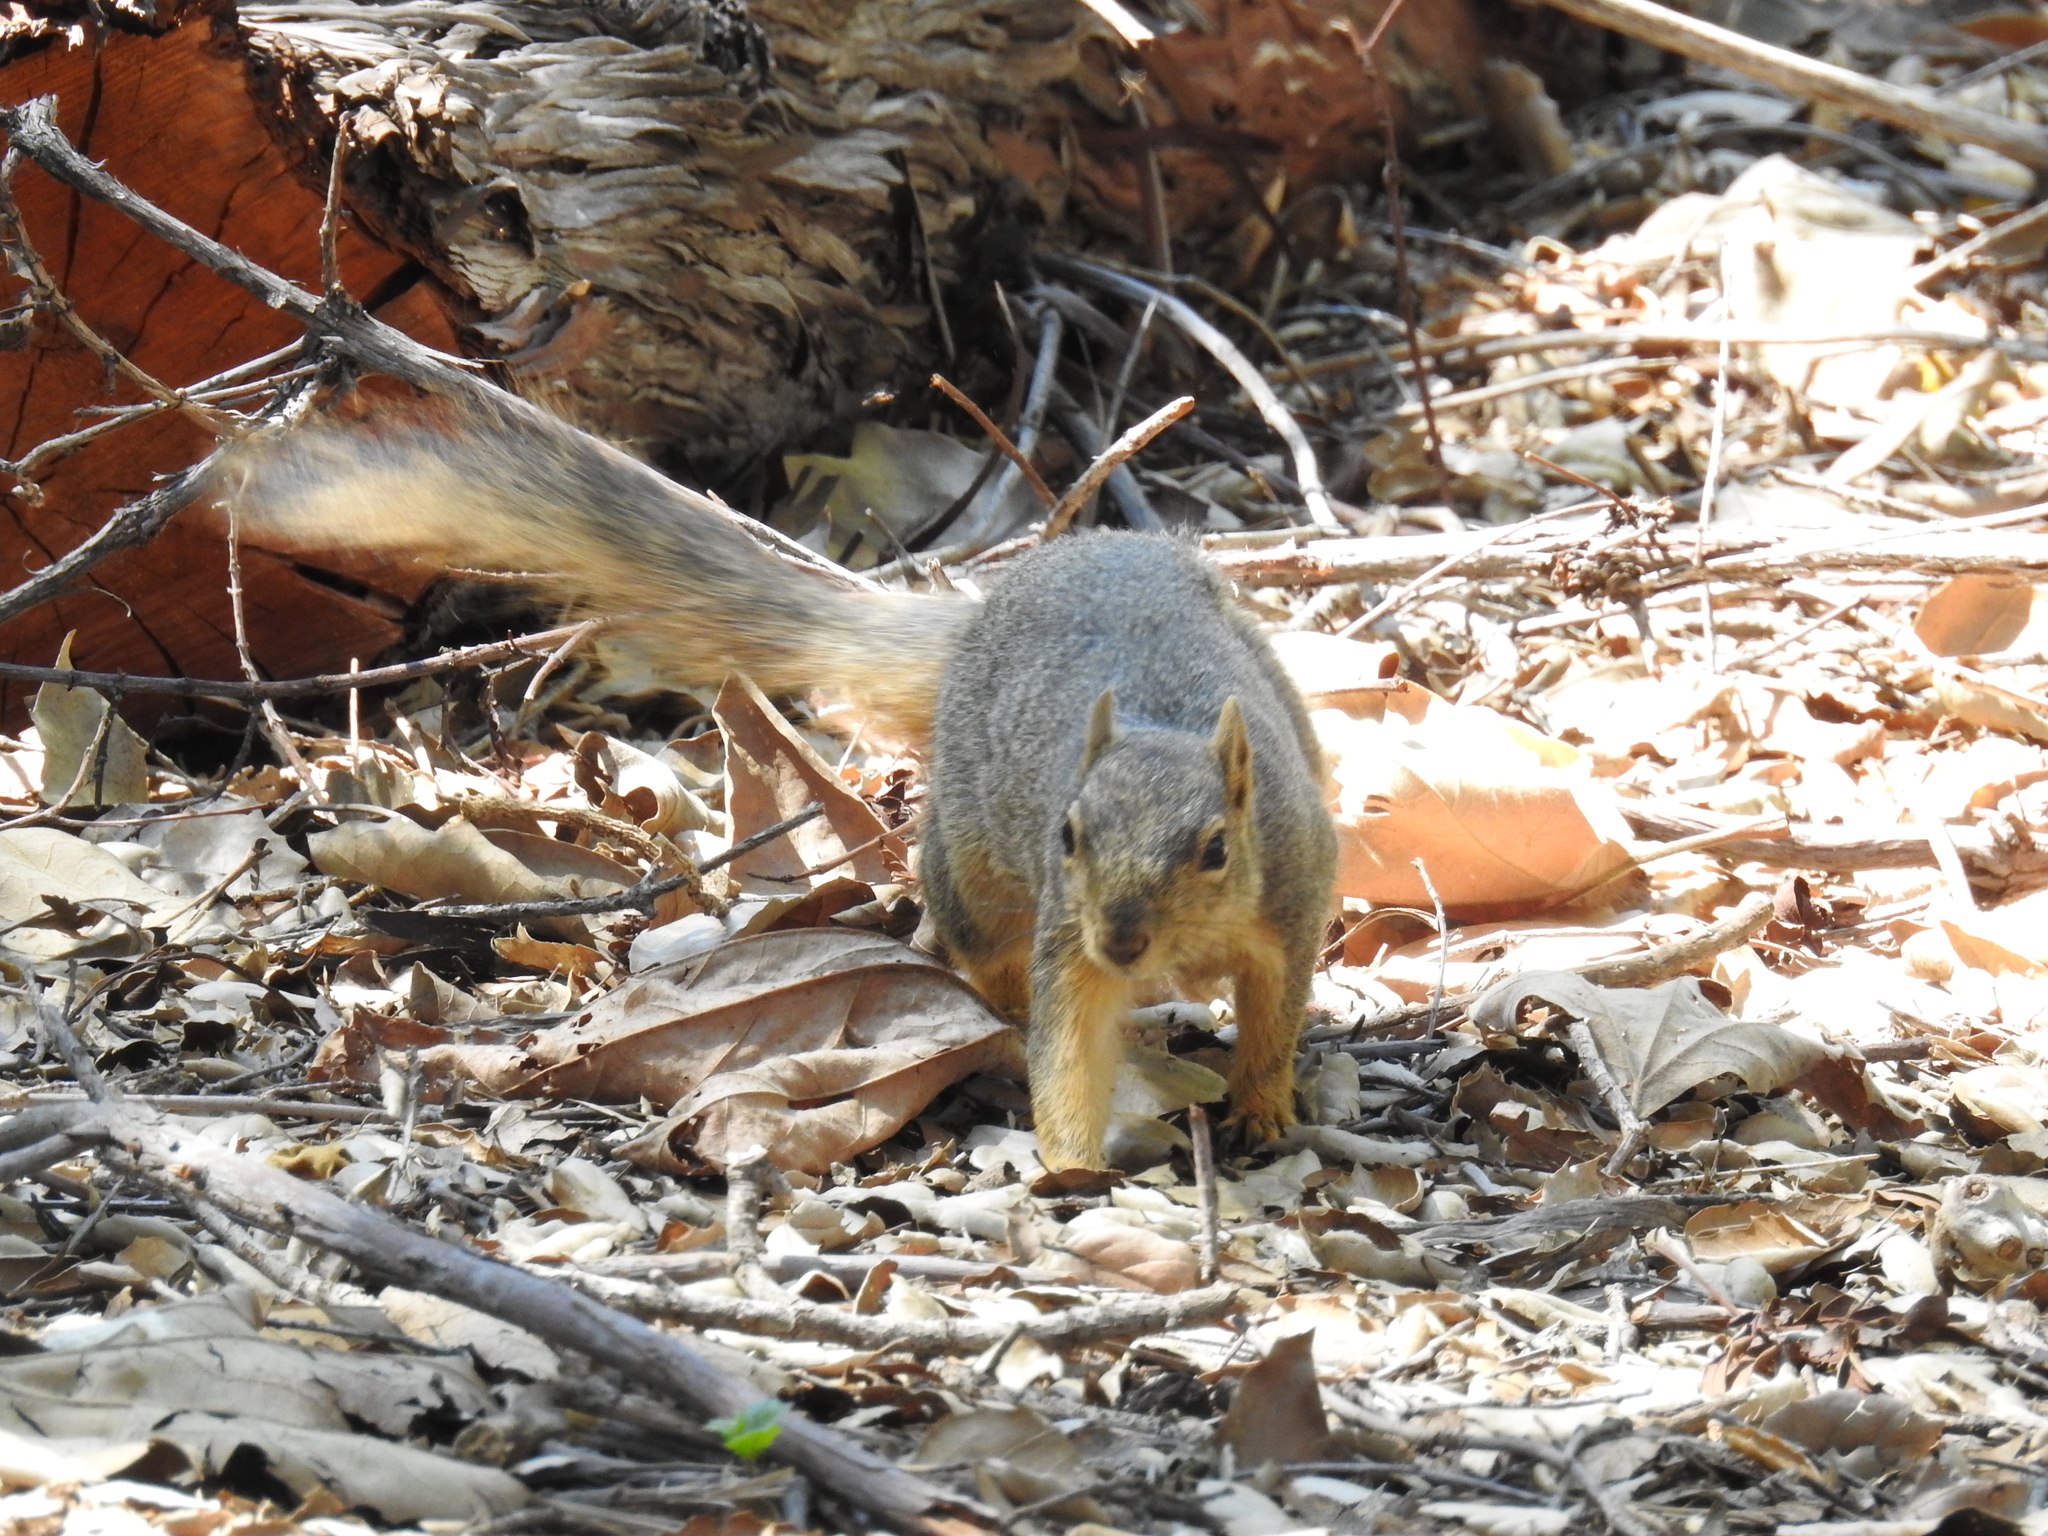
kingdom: Animalia
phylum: Chordata
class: Mammalia
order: Rodentia
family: Sciuridae
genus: Sciurus
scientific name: Sciurus niger
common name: Fox squirrel
